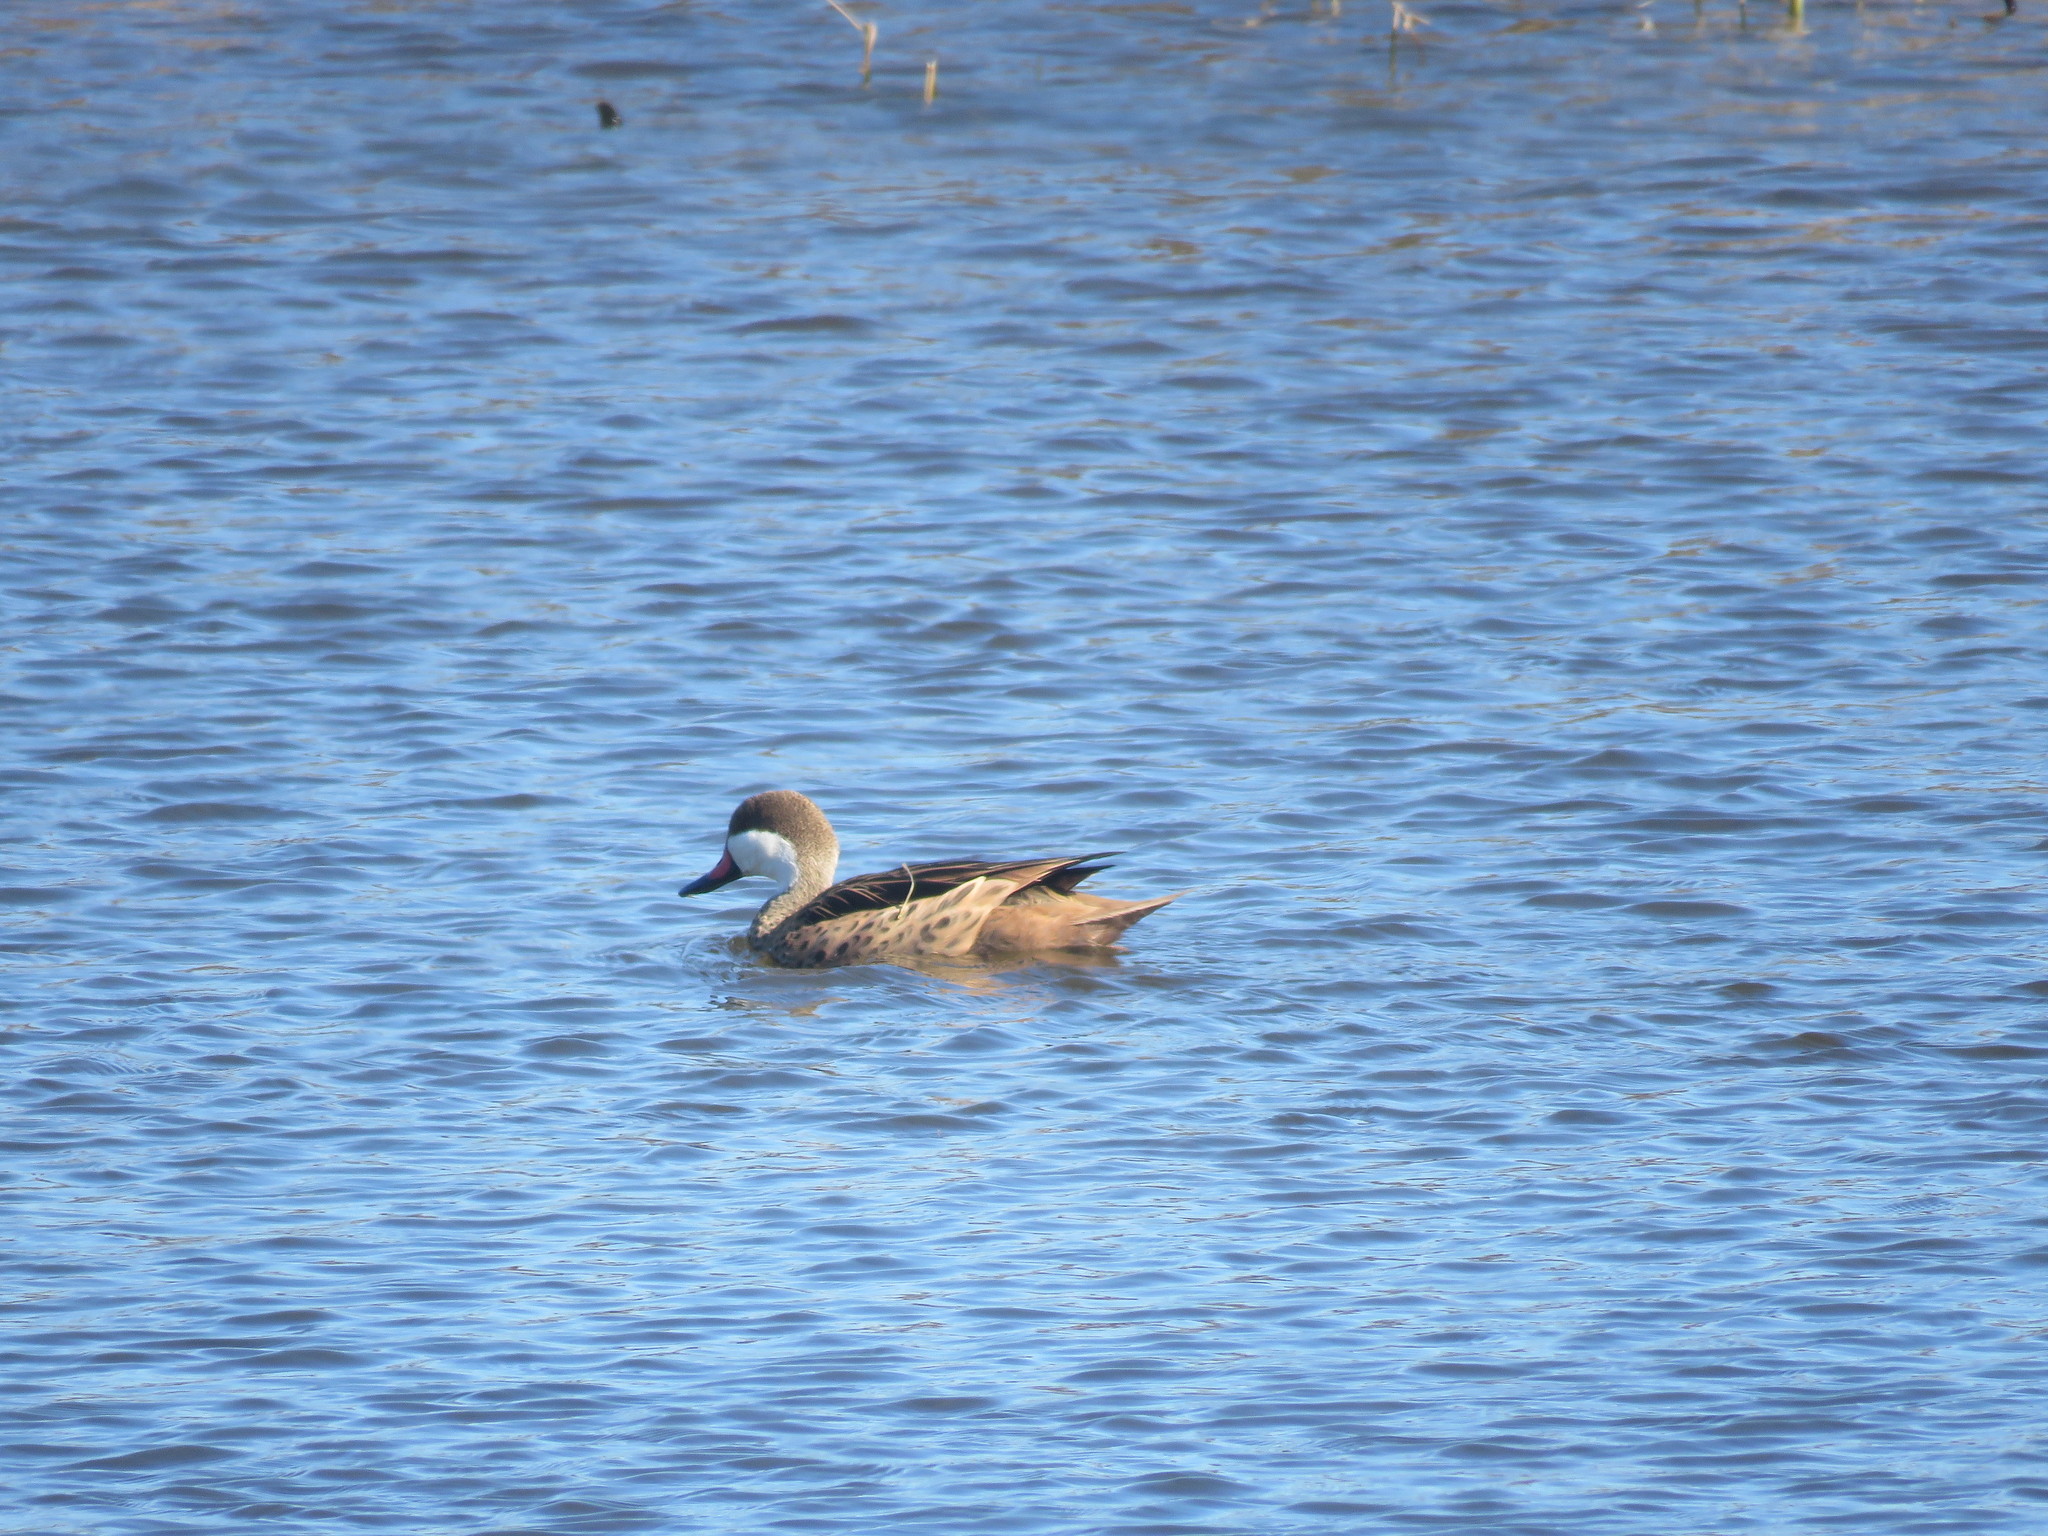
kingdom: Animalia
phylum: Chordata
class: Aves
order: Anseriformes
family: Anatidae
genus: Anas
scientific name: Anas bahamensis
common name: White-cheeked pintail
